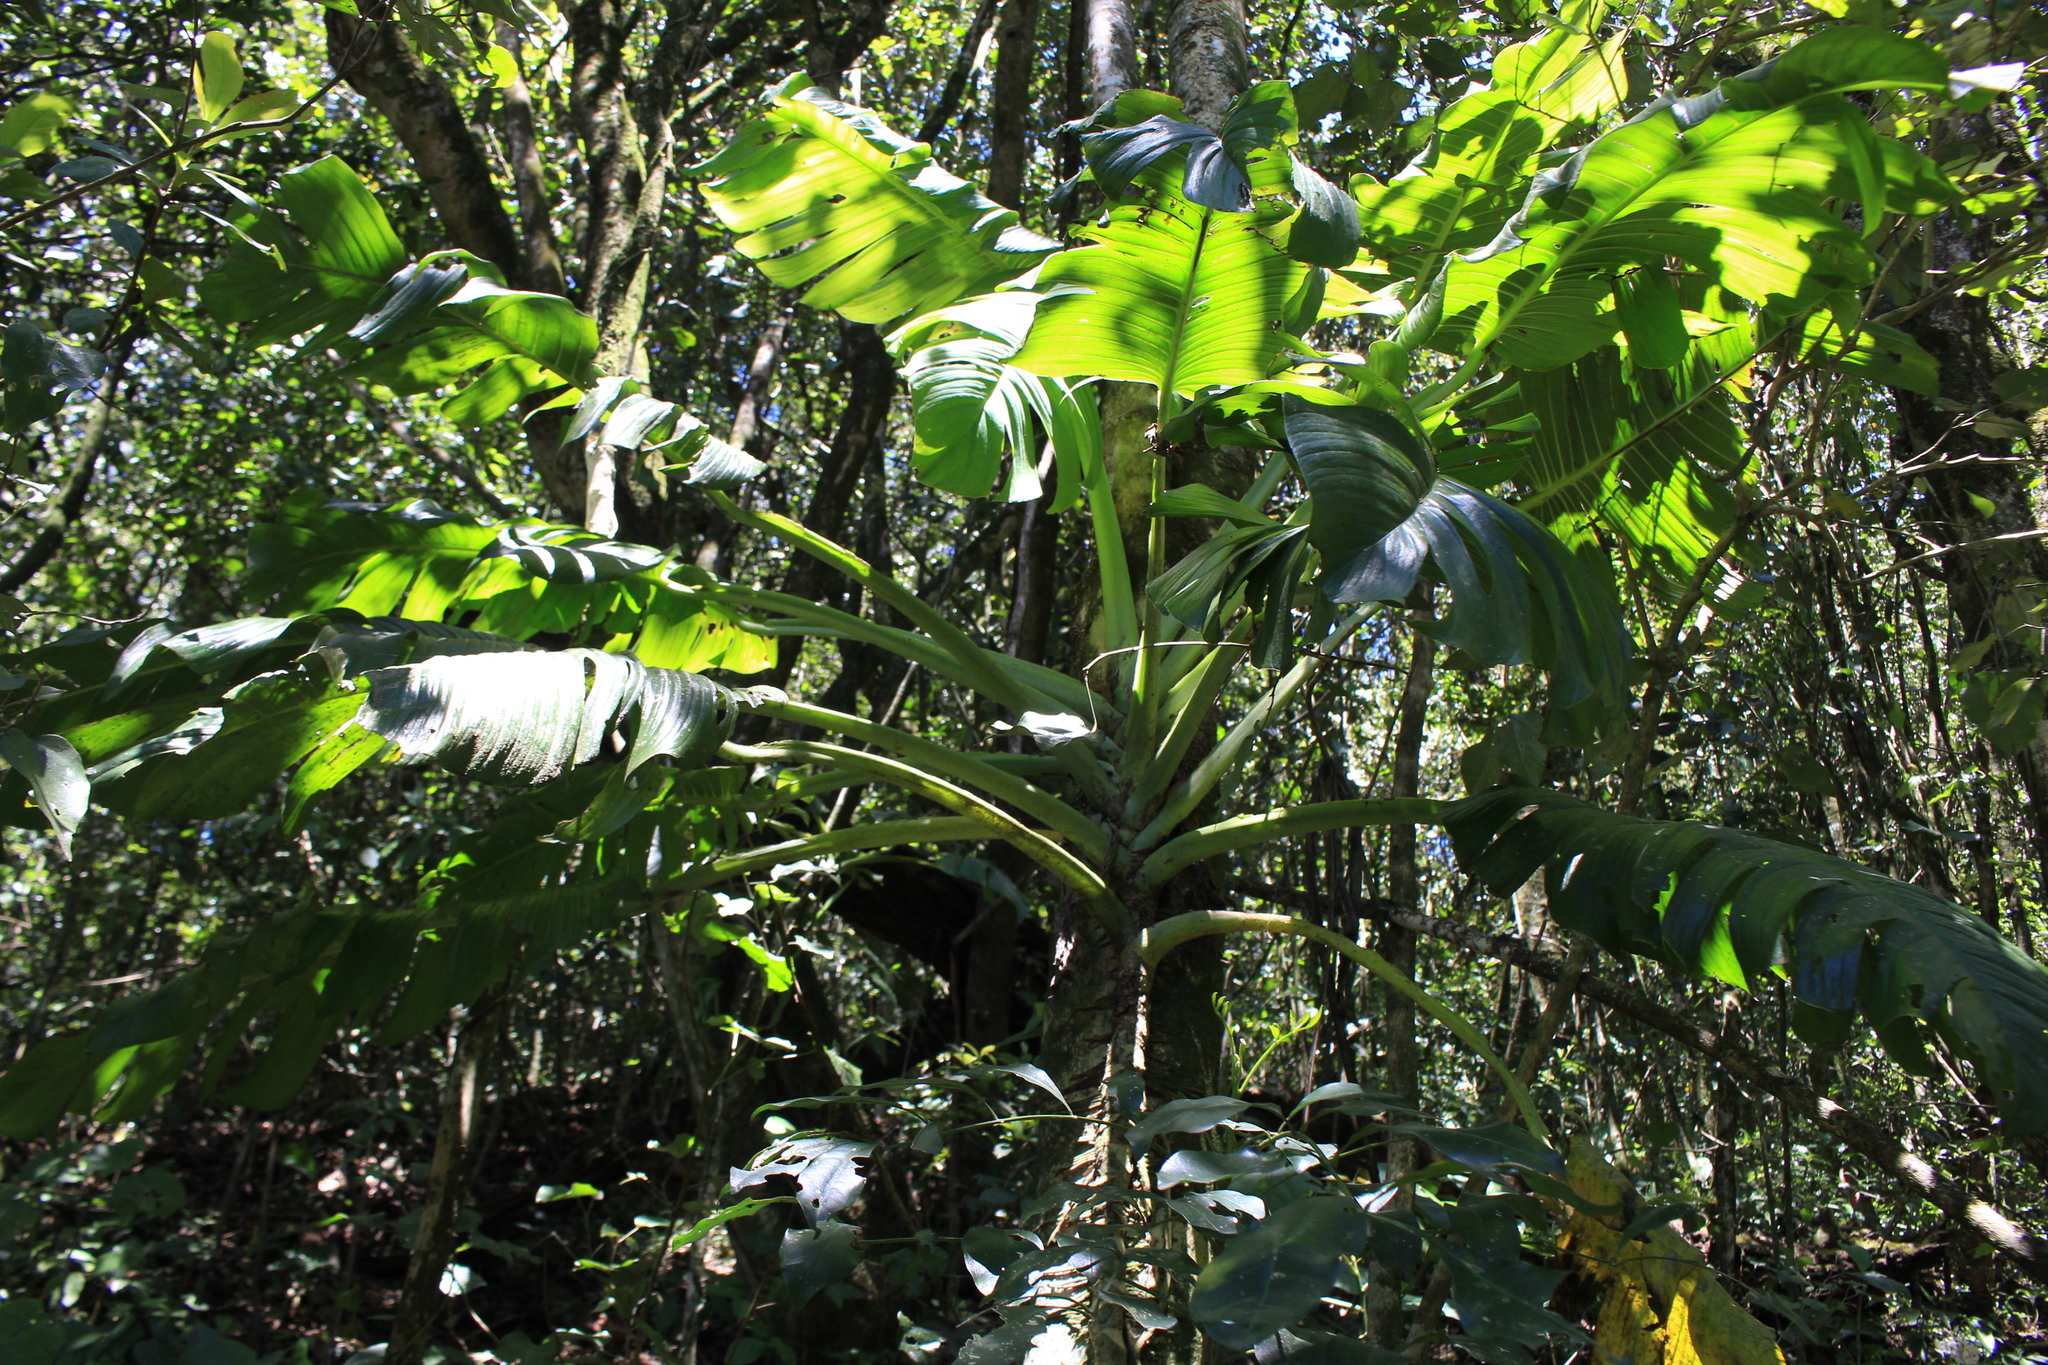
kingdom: Plantae
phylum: Tracheophyta
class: Liliopsida
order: Alismatales
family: Araceae
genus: Monstera
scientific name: Monstera lentii
